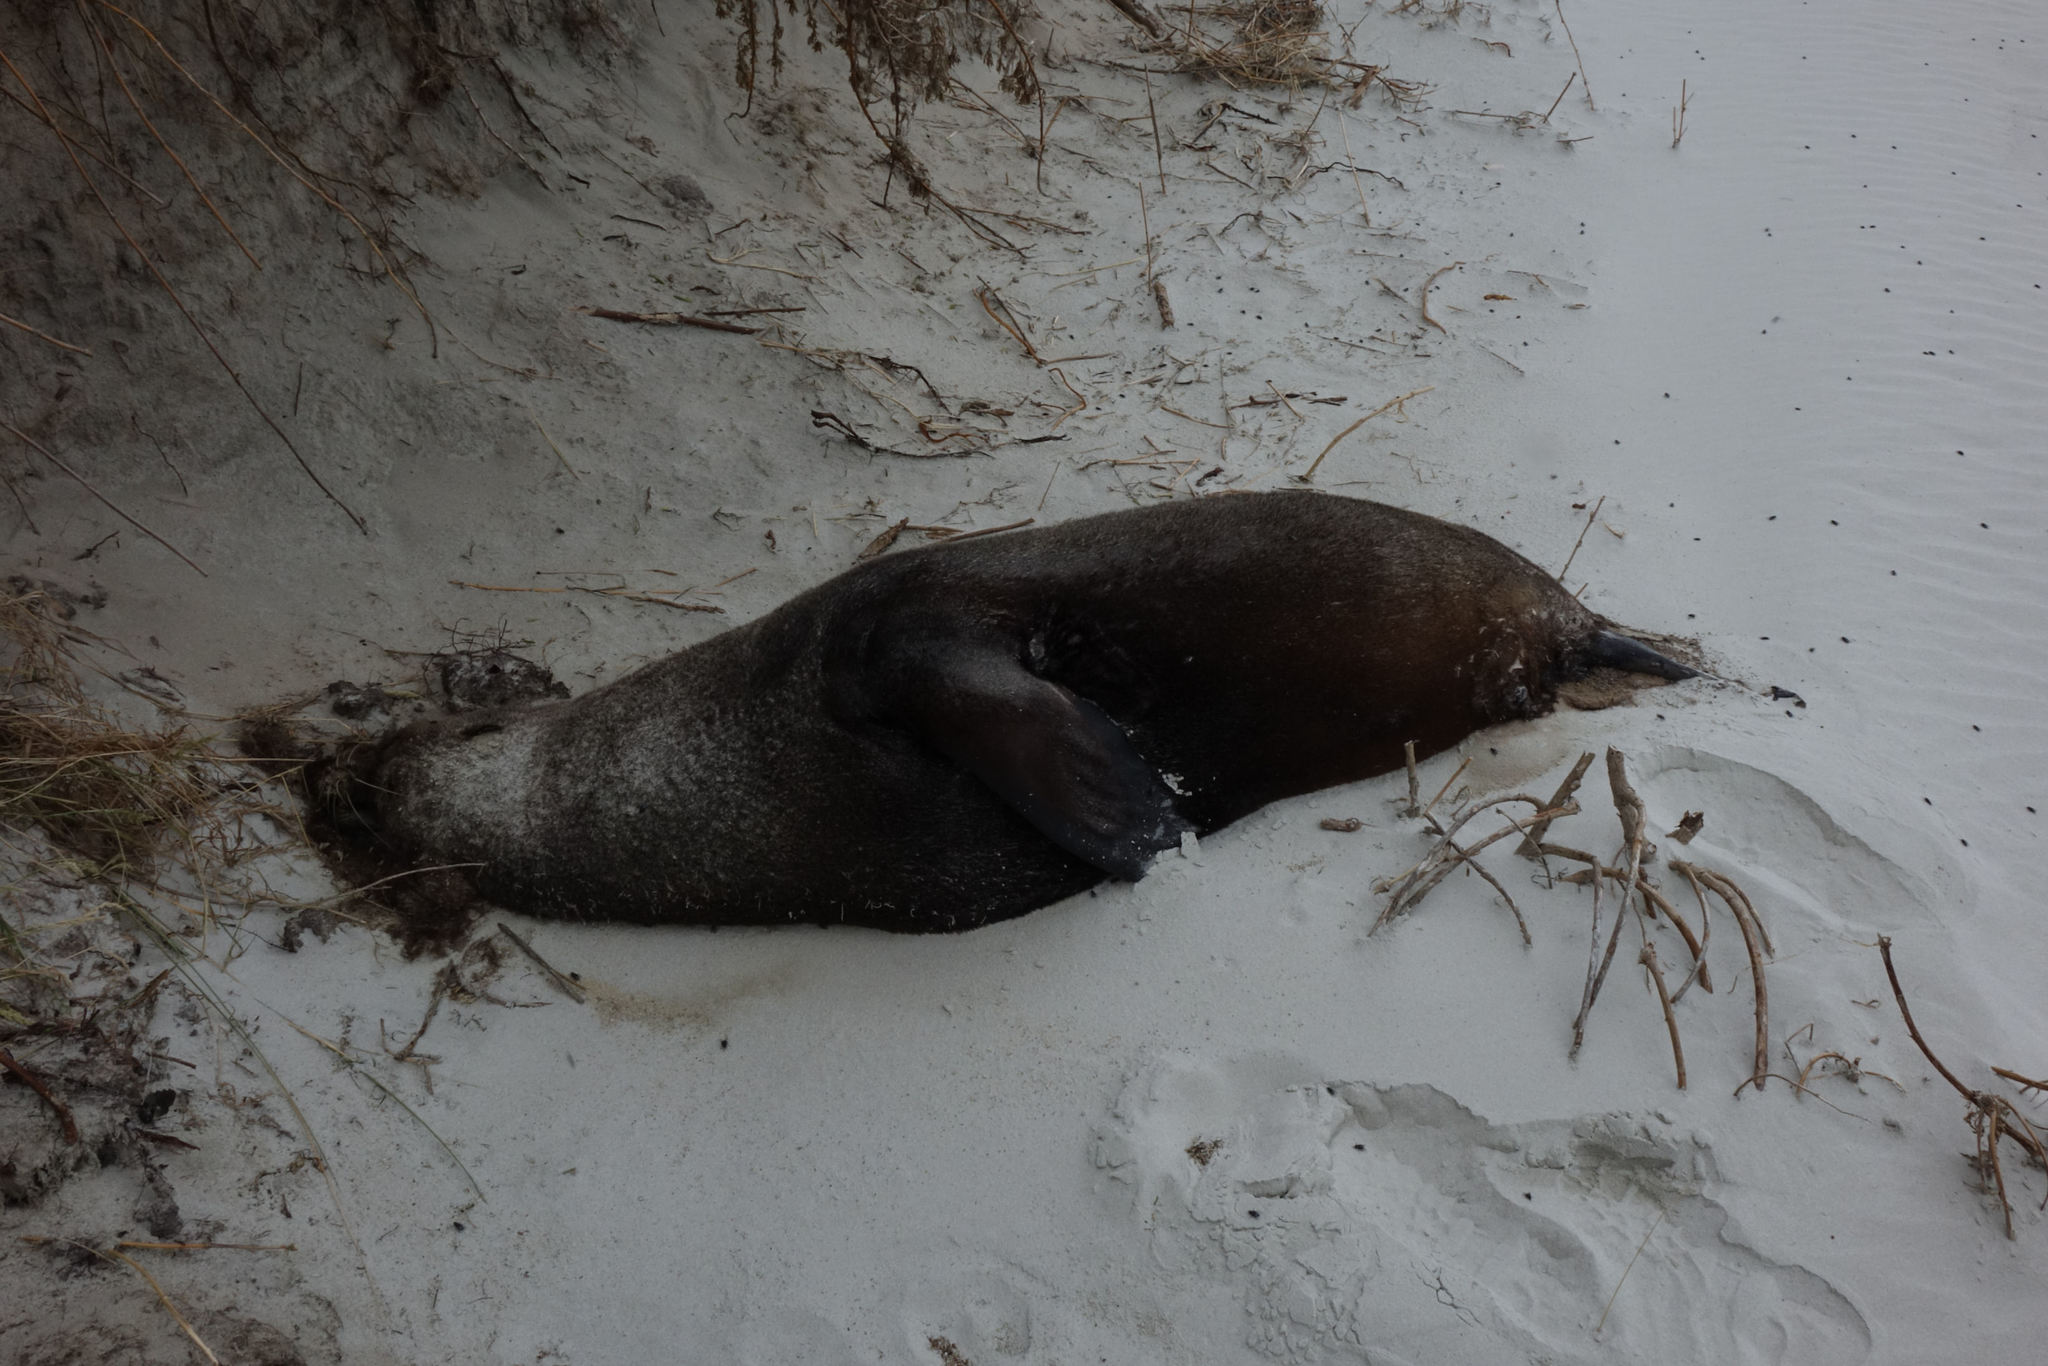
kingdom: Animalia
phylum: Chordata
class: Mammalia
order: Carnivora
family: Otariidae
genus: Arctocephalus
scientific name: Arctocephalus forsteri
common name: New zealand fur seal
